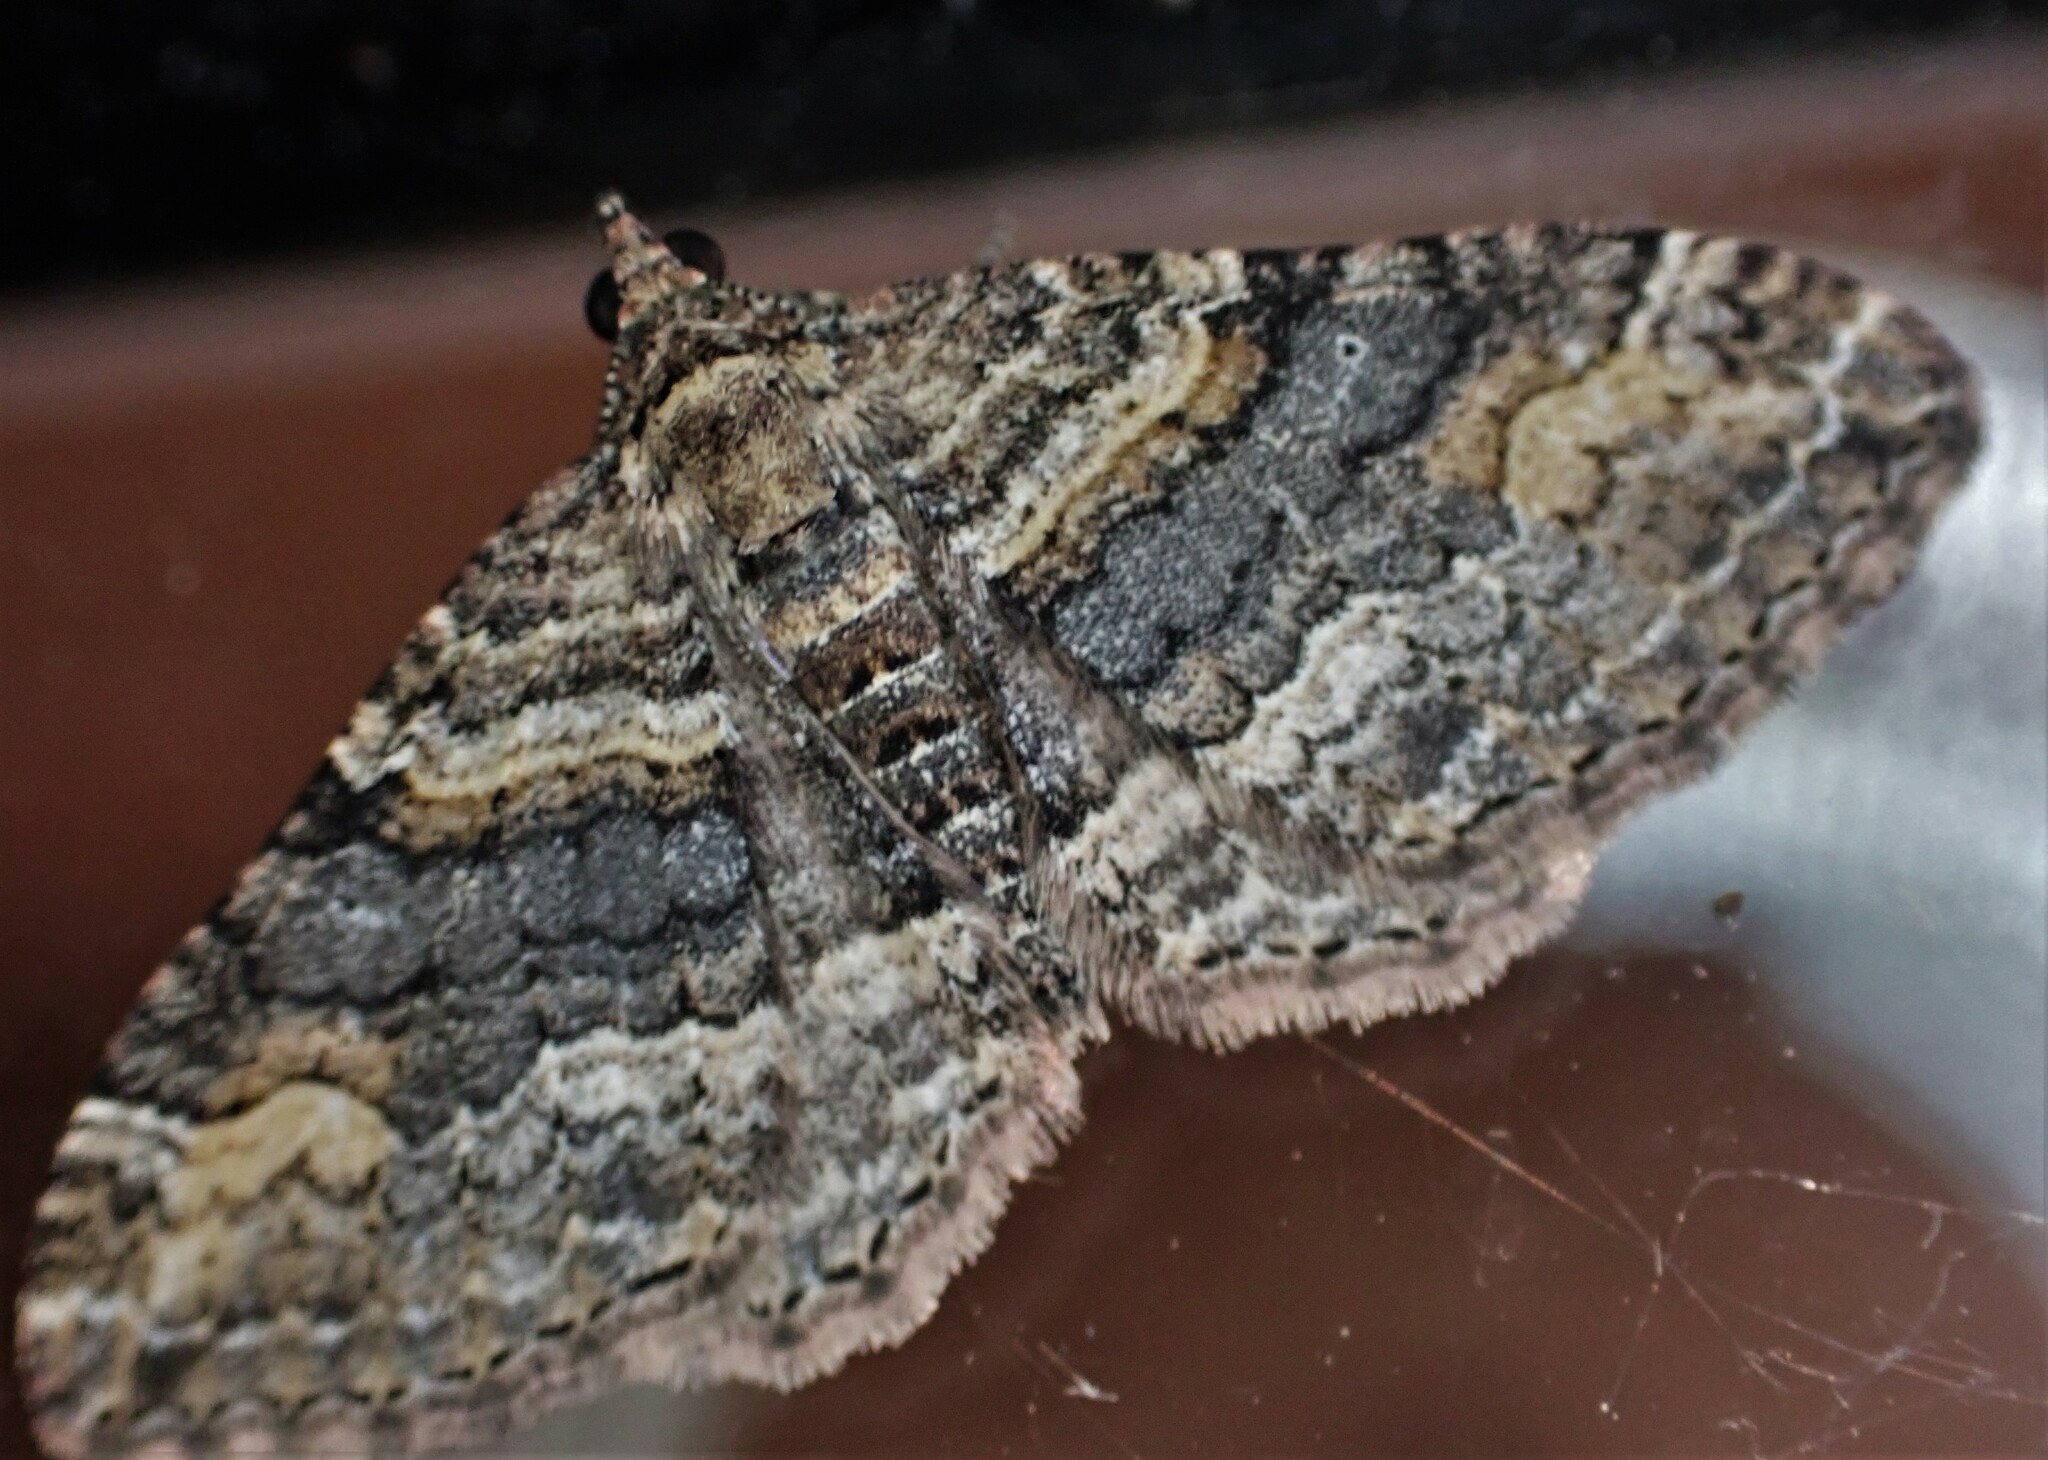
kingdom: Animalia
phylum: Arthropoda
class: Insecta
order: Lepidoptera
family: Geometridae
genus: Epyaxa
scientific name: Epyaxa lucidata
